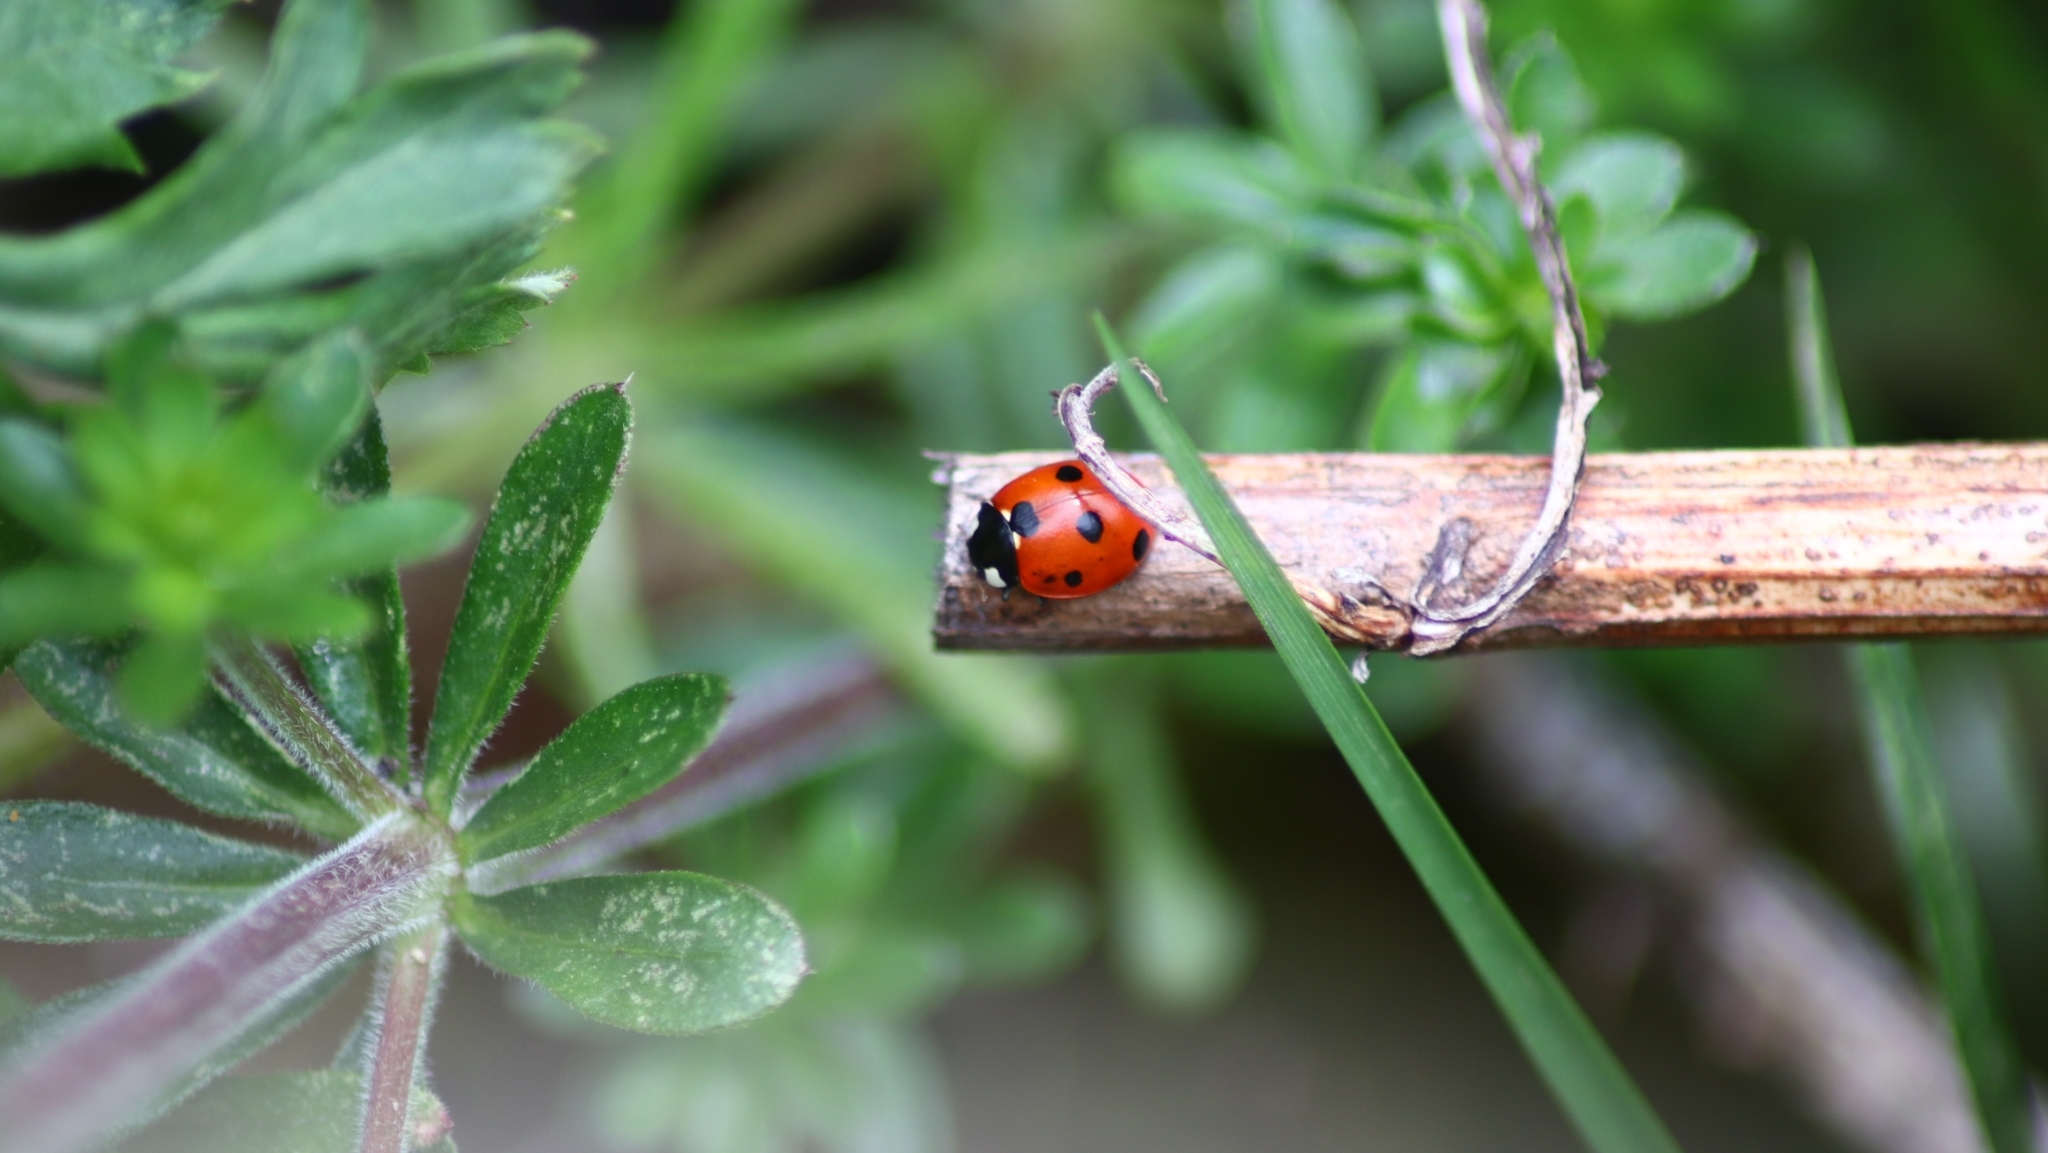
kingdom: Animalia
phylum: Arthropoda
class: Insecta
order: Coleoptera
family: Coccinellidae
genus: Coccinella
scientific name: Coccinella septempunctata
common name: Sevenspotted lady beetle
